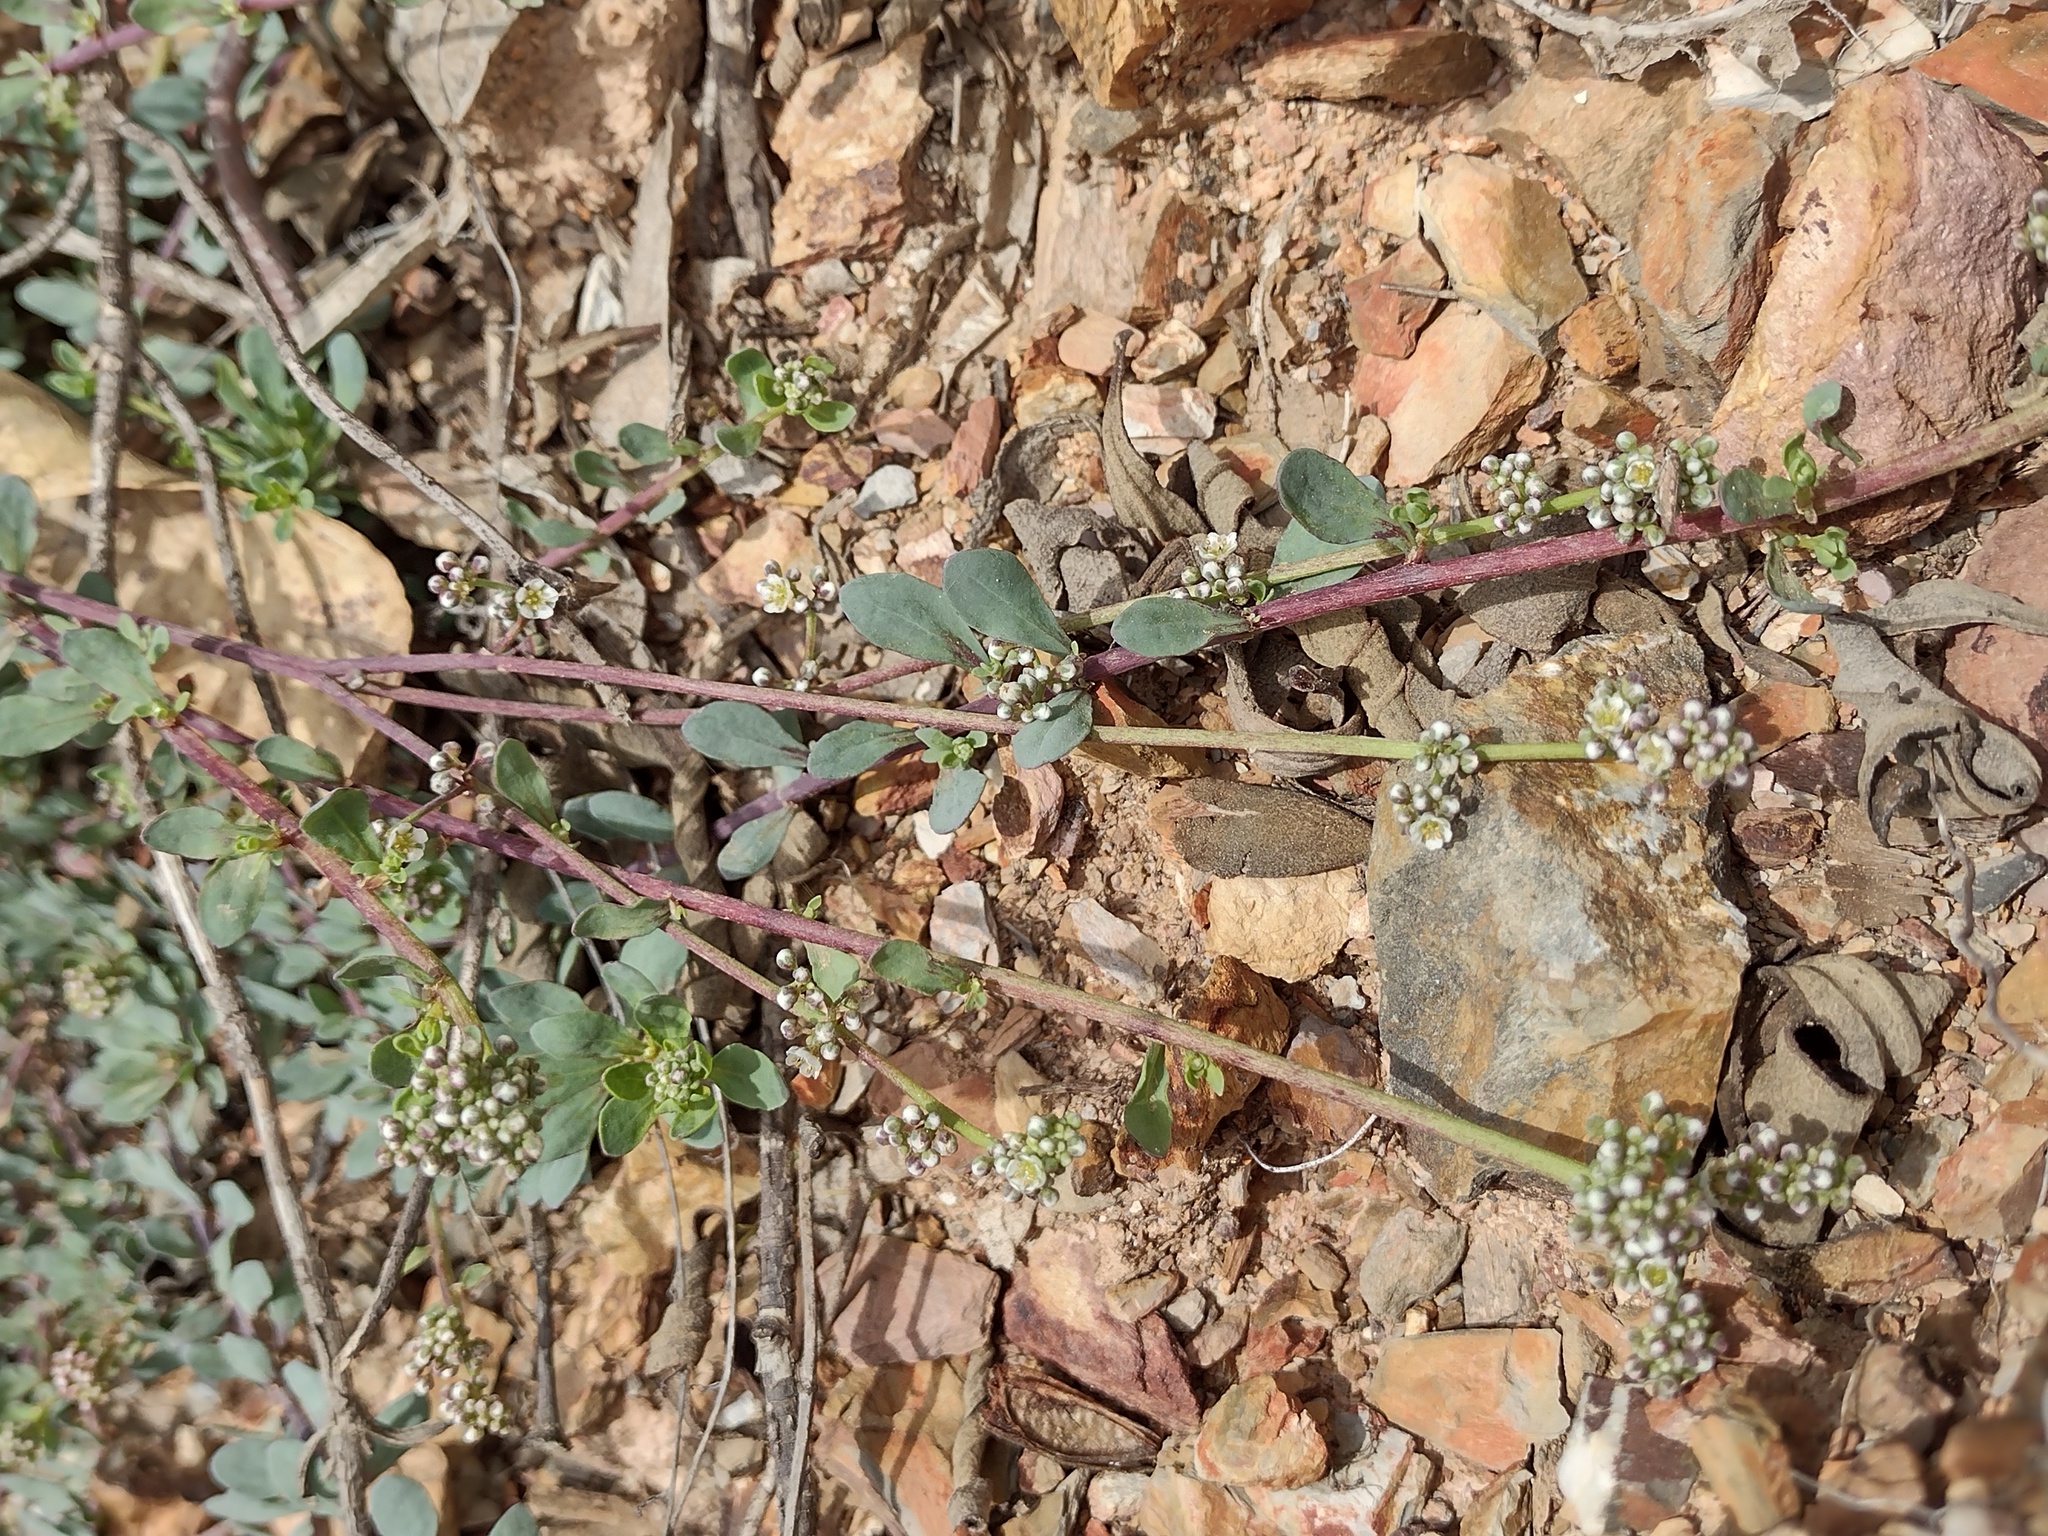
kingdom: Plantae
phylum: Tracheophyta
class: Magnoliopsida
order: Caryophyllales
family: Caryophyllaceae
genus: Corrigiola
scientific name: Corrigiola litoralis
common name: Strapwort
